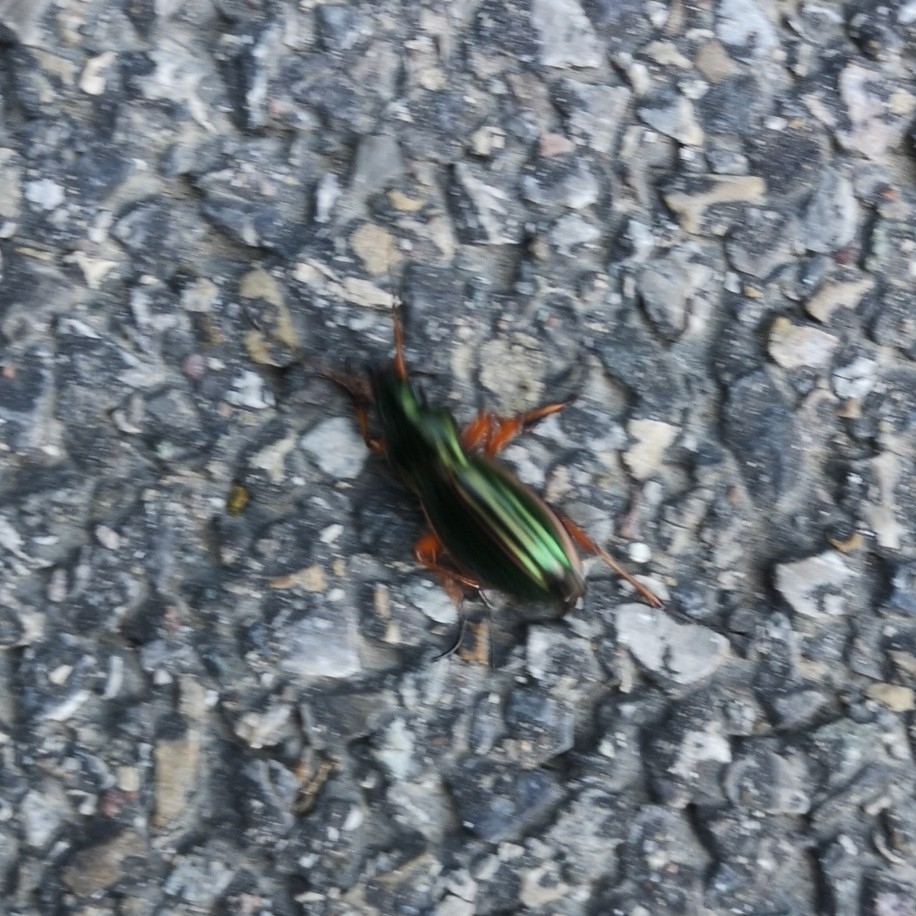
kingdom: Animalia
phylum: Arthropoda
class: Insecta
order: Coleoptera
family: Carabidae
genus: Carabus
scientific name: Carabus auratus
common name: Golden ground beetle
